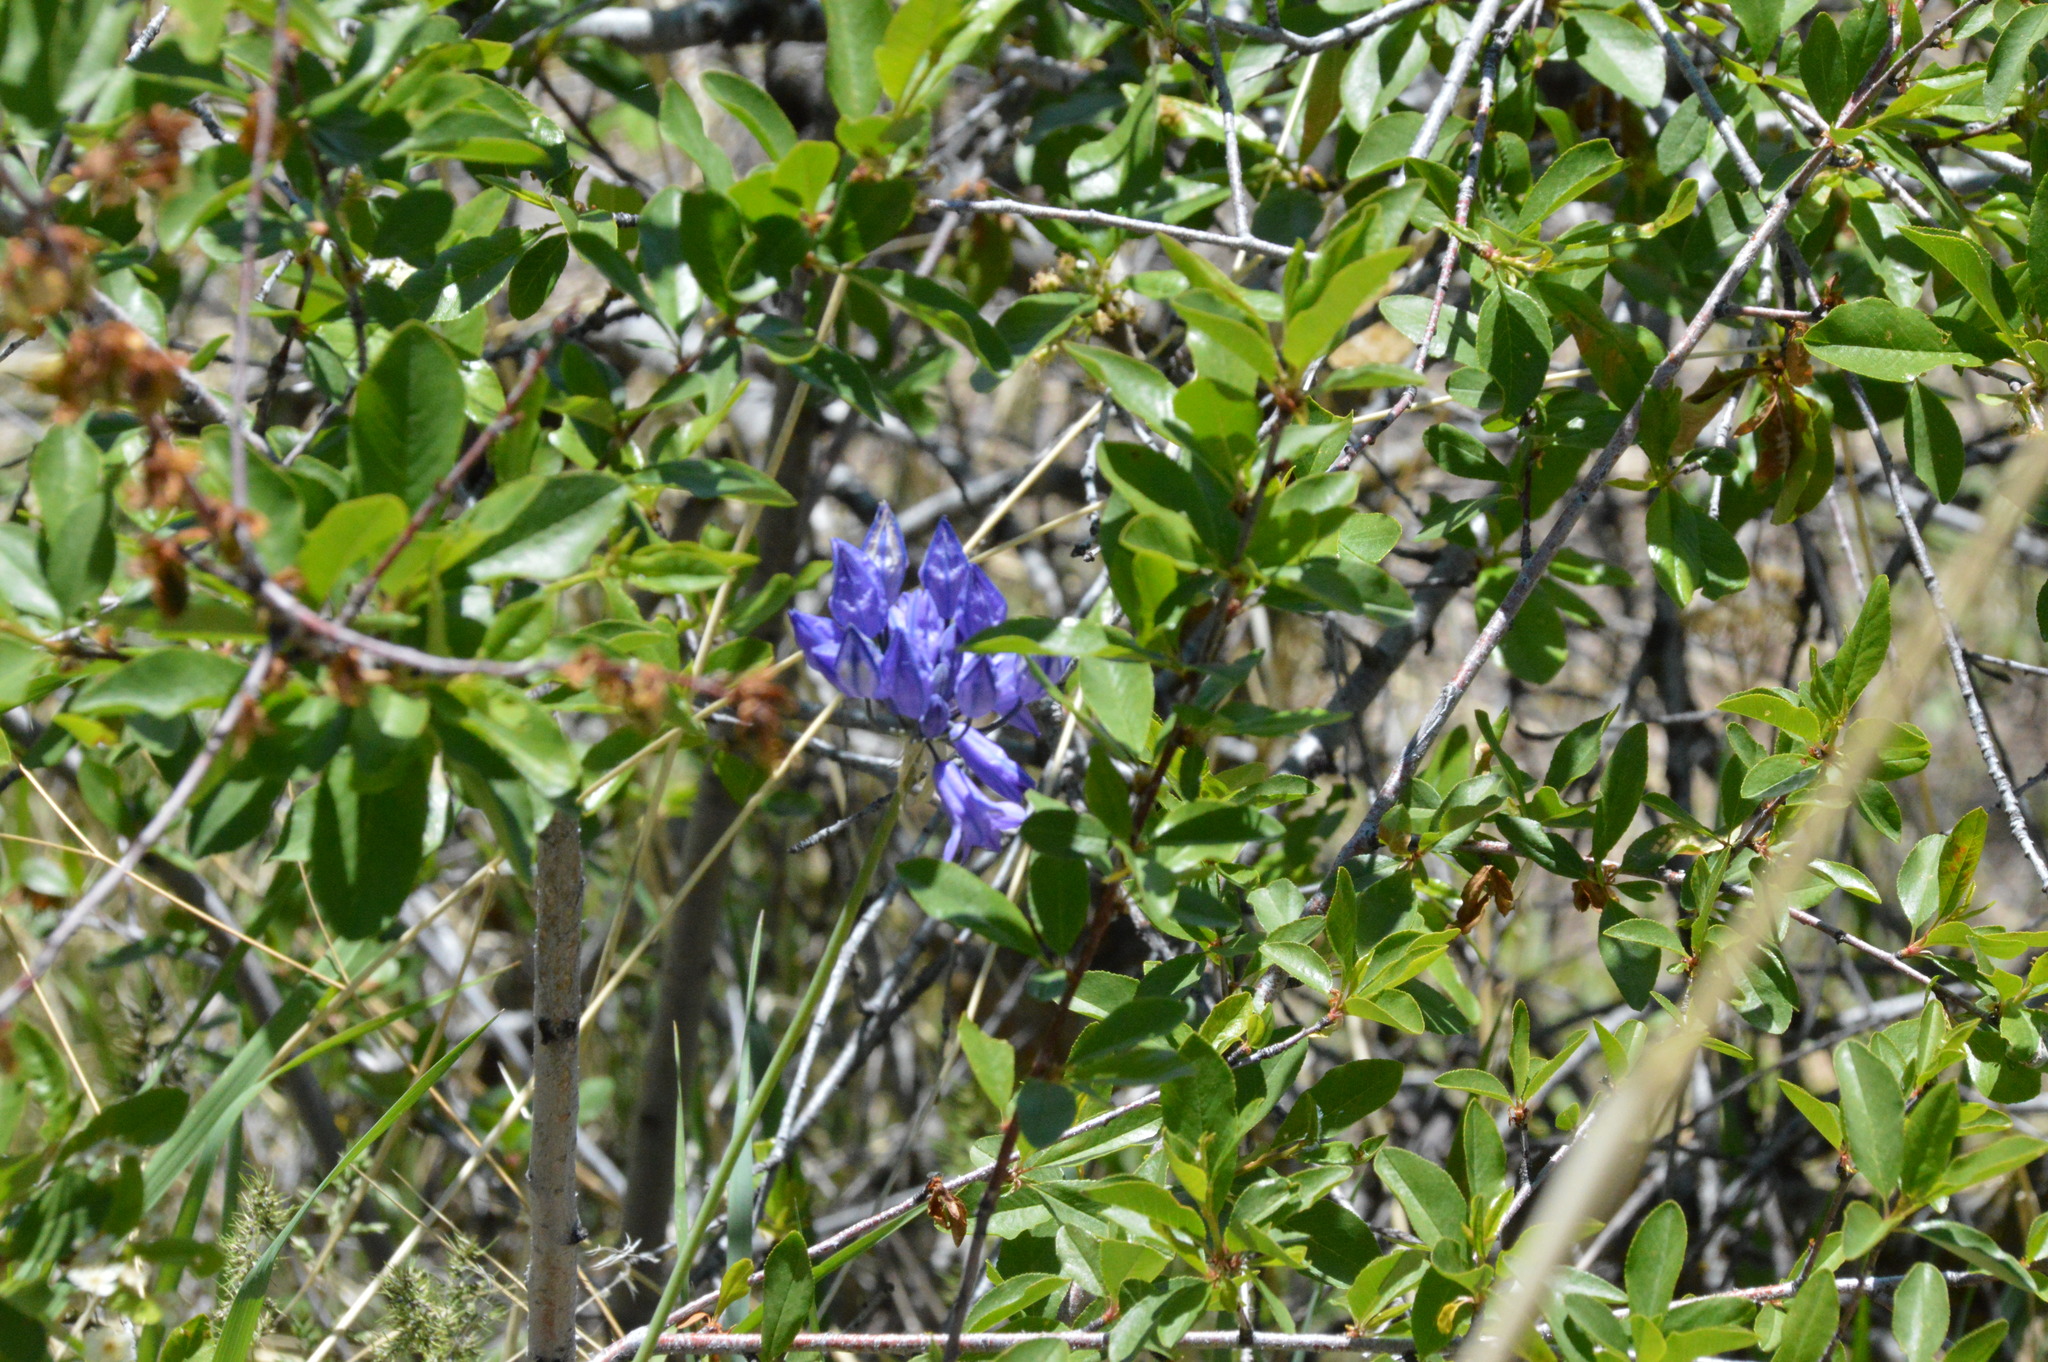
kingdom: Plantae
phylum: Tracheophyta
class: Liliopsida
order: Asparagales
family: Asparagaceae
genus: Triteleia
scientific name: Triteleia grandiflora
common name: Wild hyacinth
